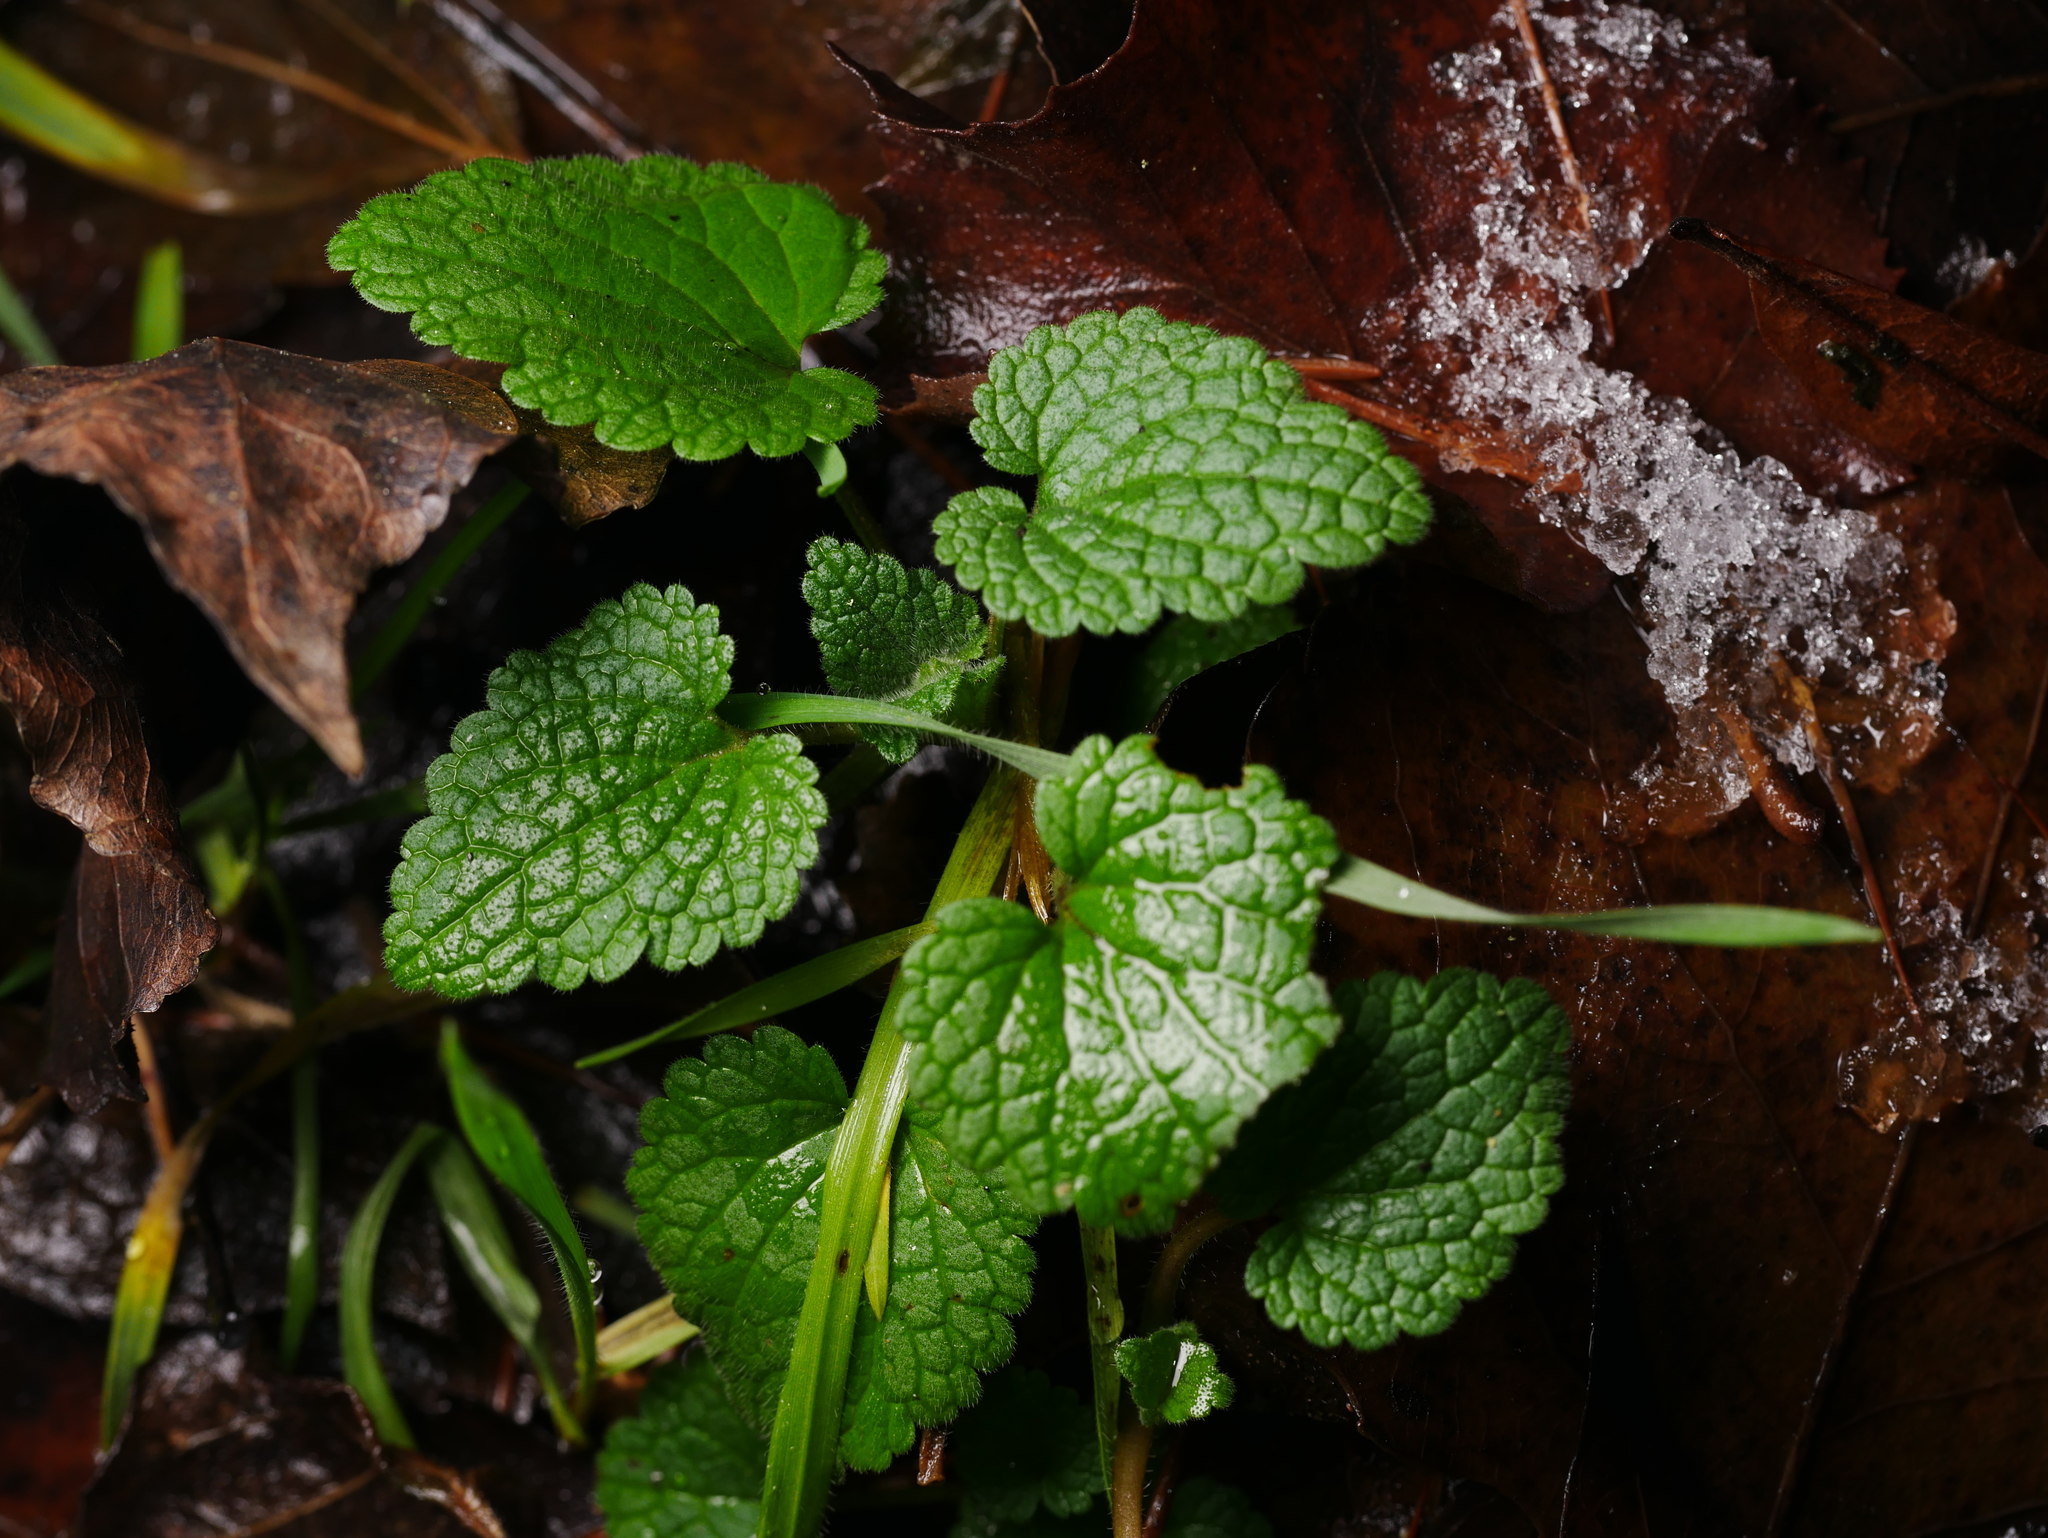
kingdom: Plantae
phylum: Tracheophyta
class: Magnoliopsida
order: Lamiales
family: Lamiaceae
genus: Lamium
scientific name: Lamium purpureum
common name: Red dead-nettle
